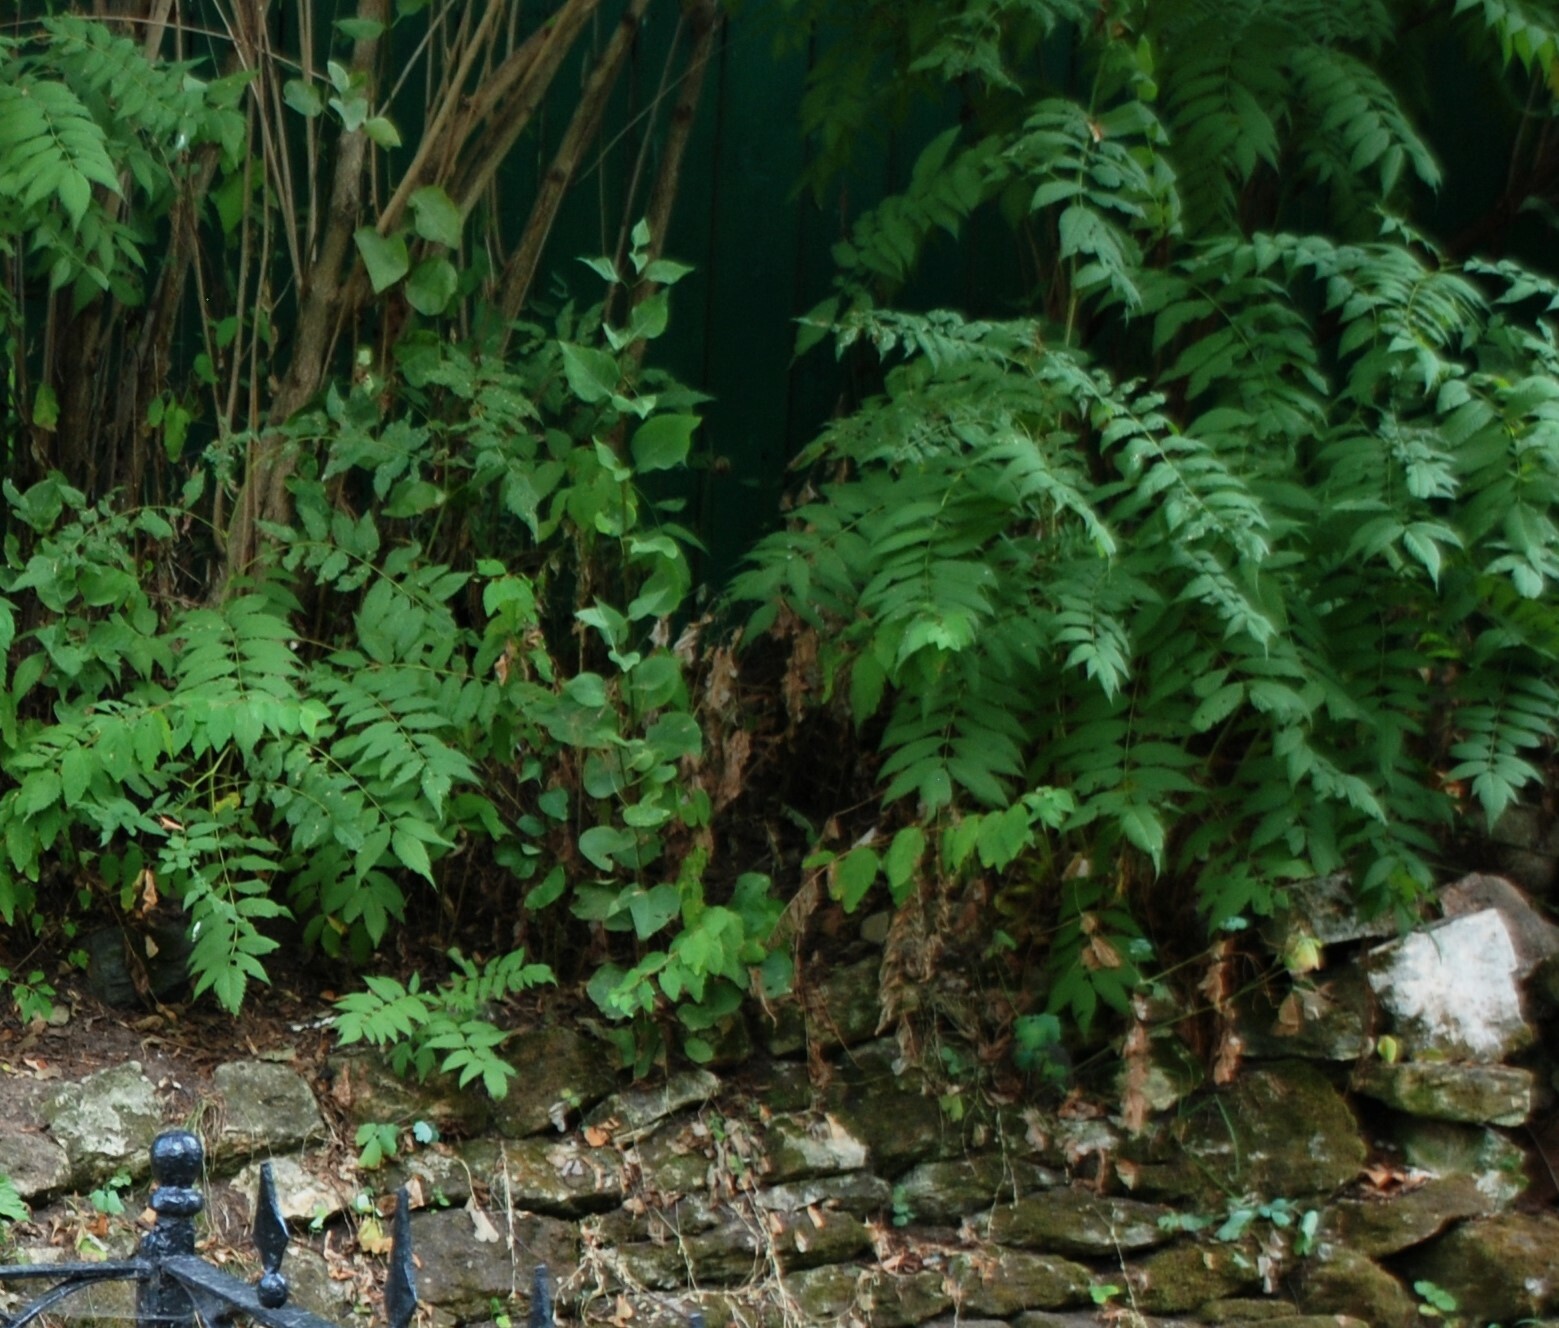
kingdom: Plantae
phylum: Tracheophyta
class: Magnoliopsida
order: Rosales
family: Rosaceae
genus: Sorbaria
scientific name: Sorbaria sorbifolia
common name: False spiraea
